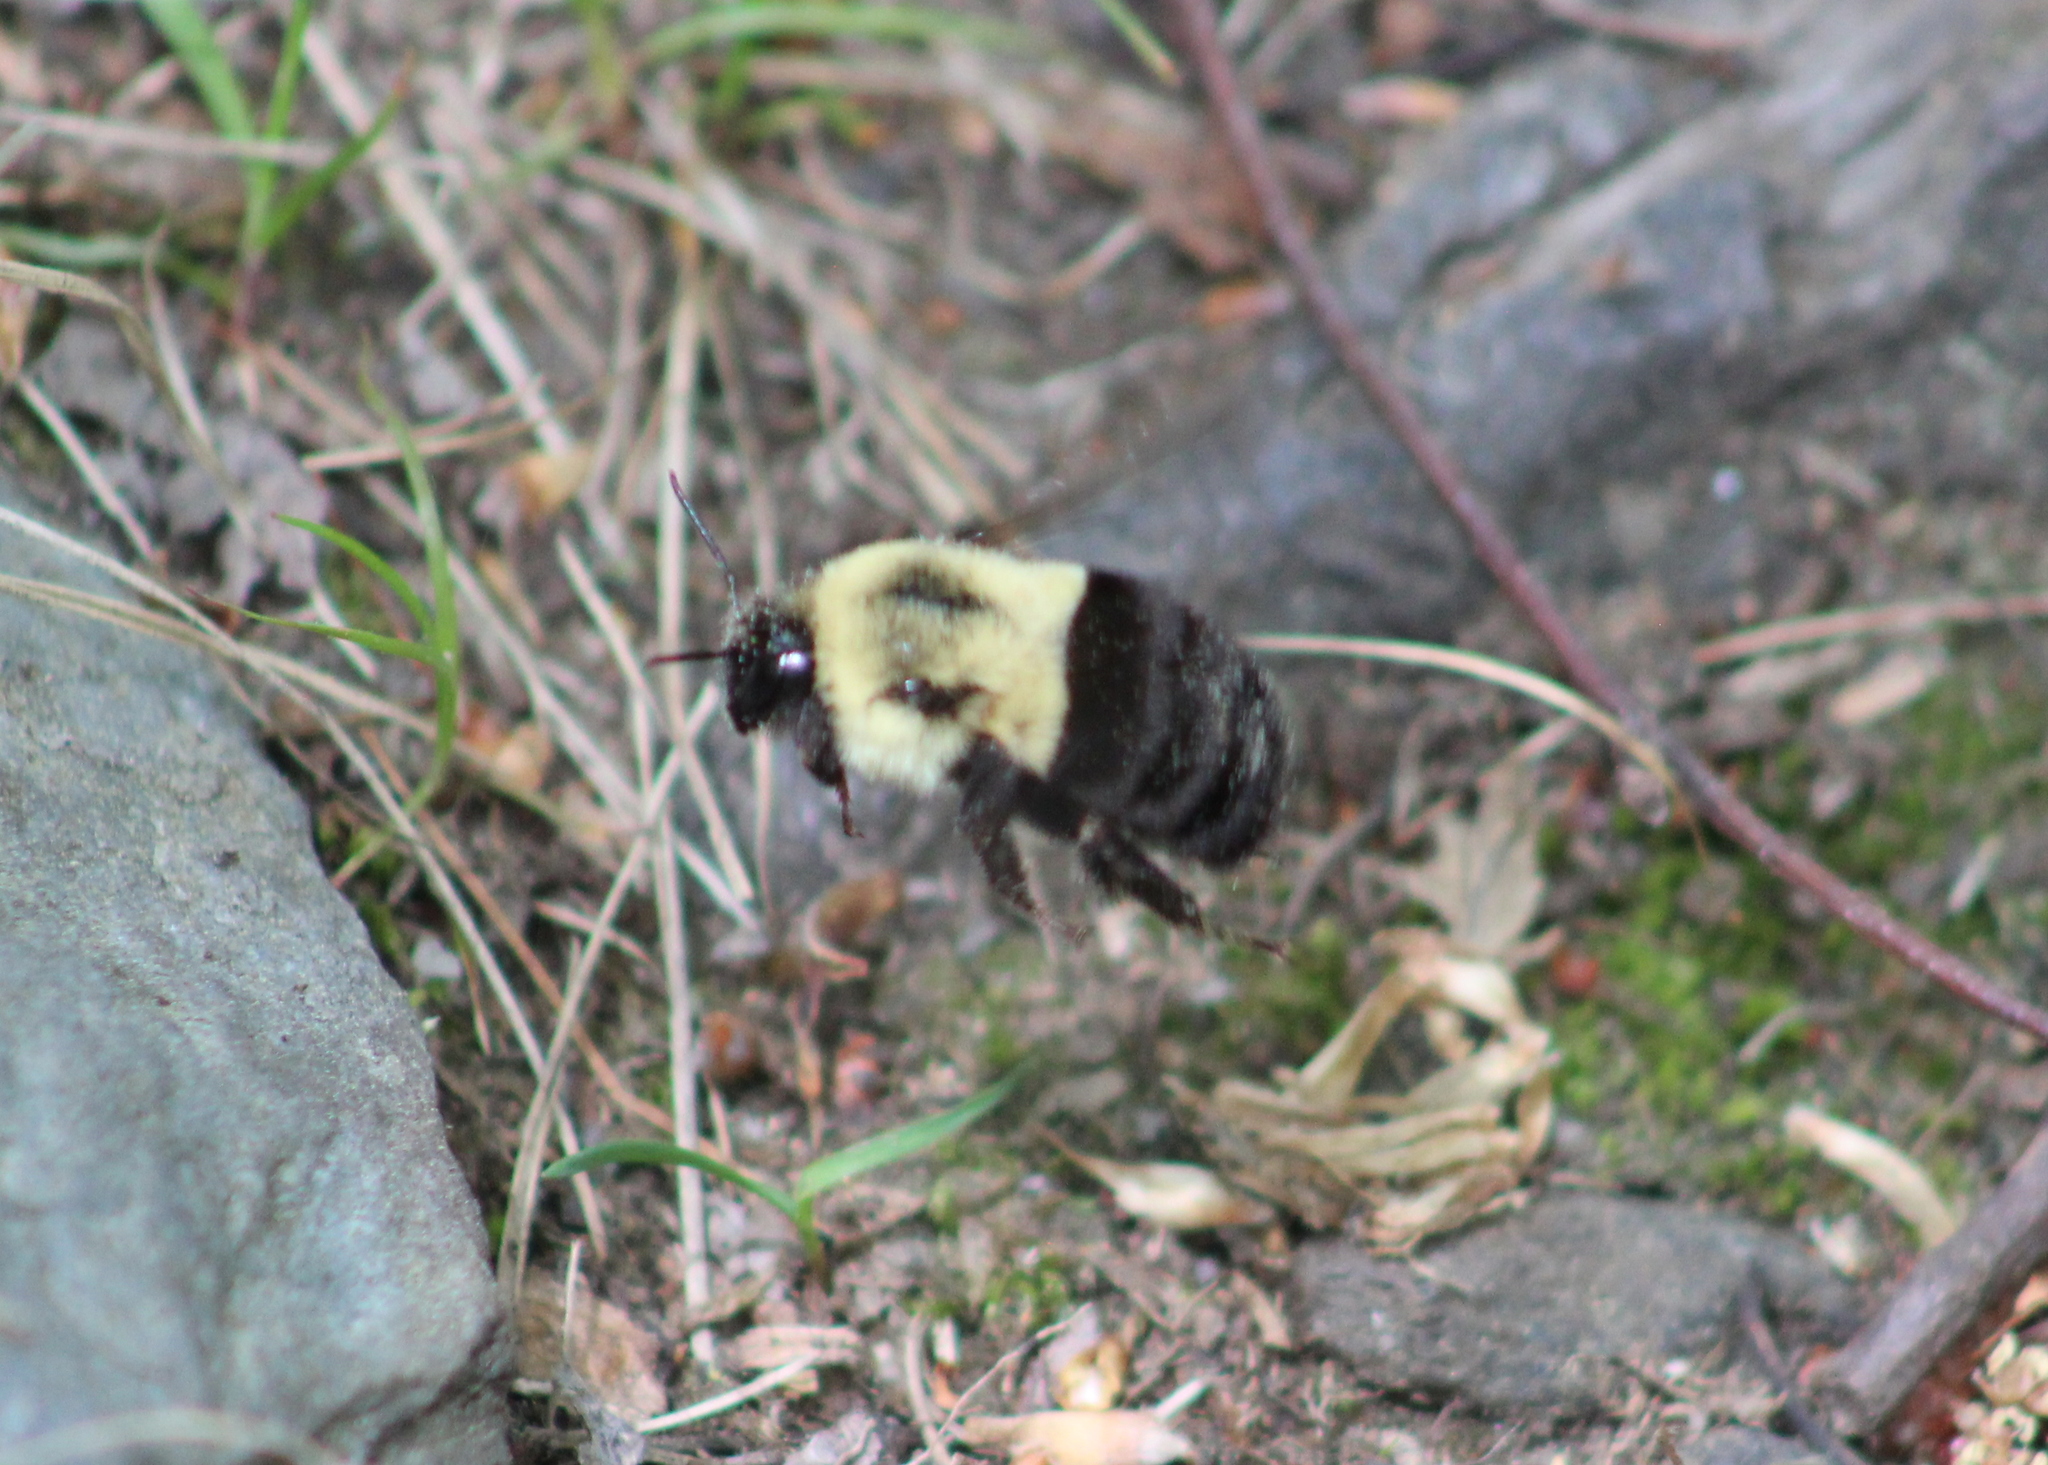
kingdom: Animalia
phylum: Arthropoda
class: Insecta
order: Hymenoptera
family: Apidae
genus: Bombus
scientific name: Bombus impatiens
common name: Common eastern bumble bee
